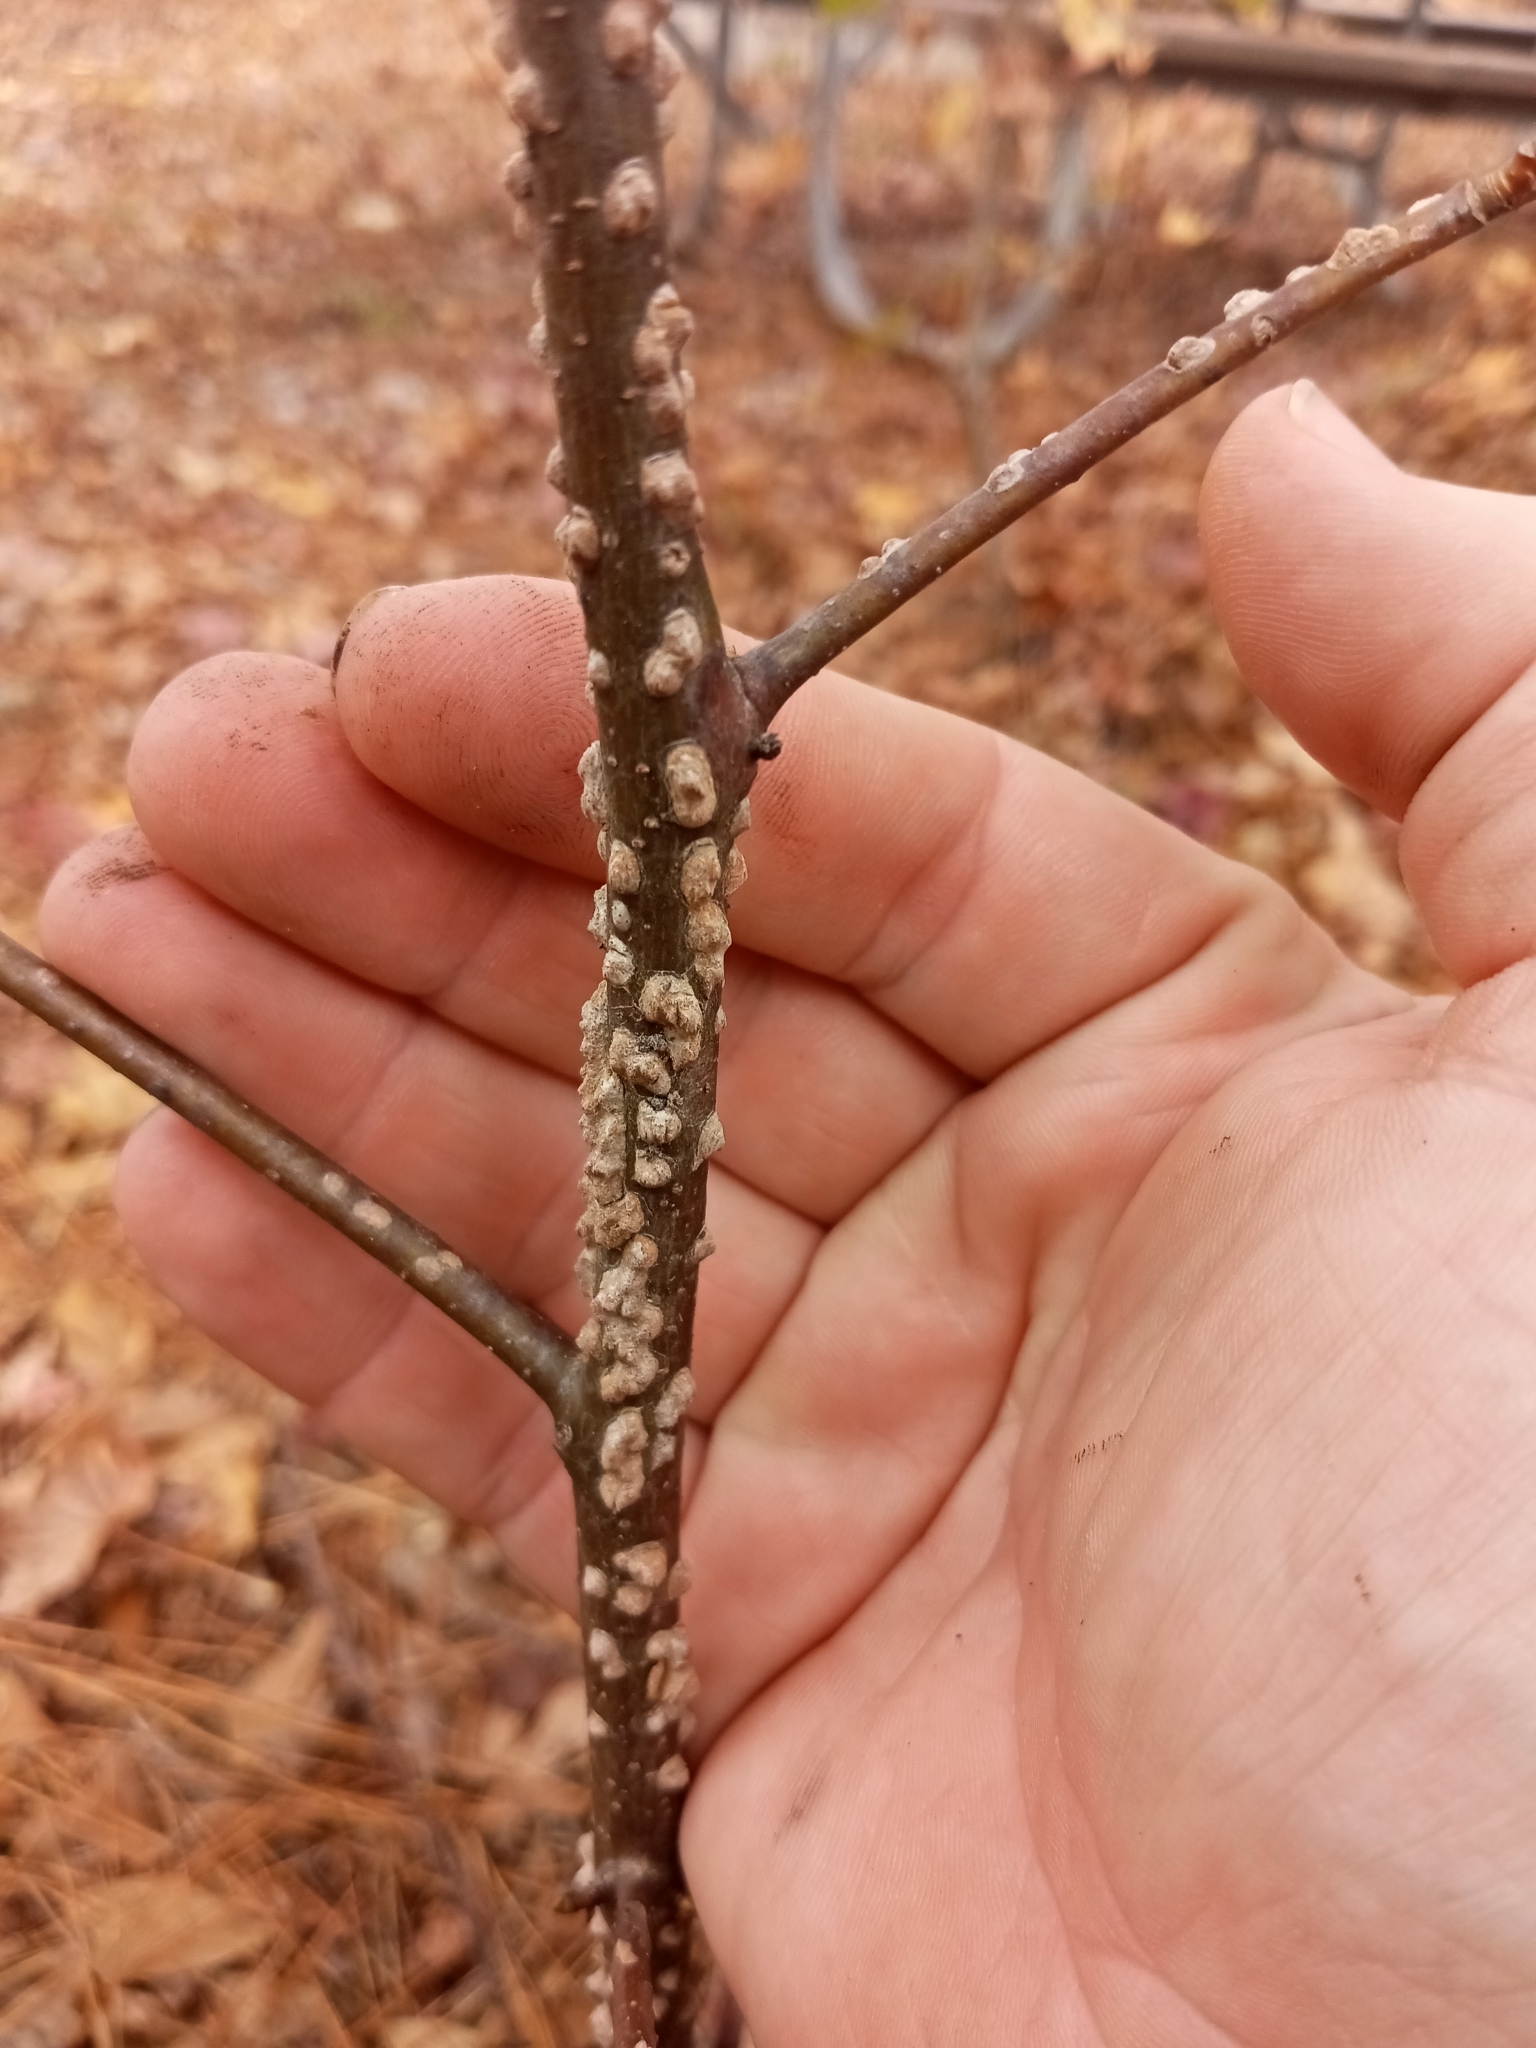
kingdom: Plantae
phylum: Tracheophyta
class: Magnoliopsida
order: Saxifragales
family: Altingiaceae
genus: Liquidambar
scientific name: Liquidambar styraciflua
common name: Sweet gum
